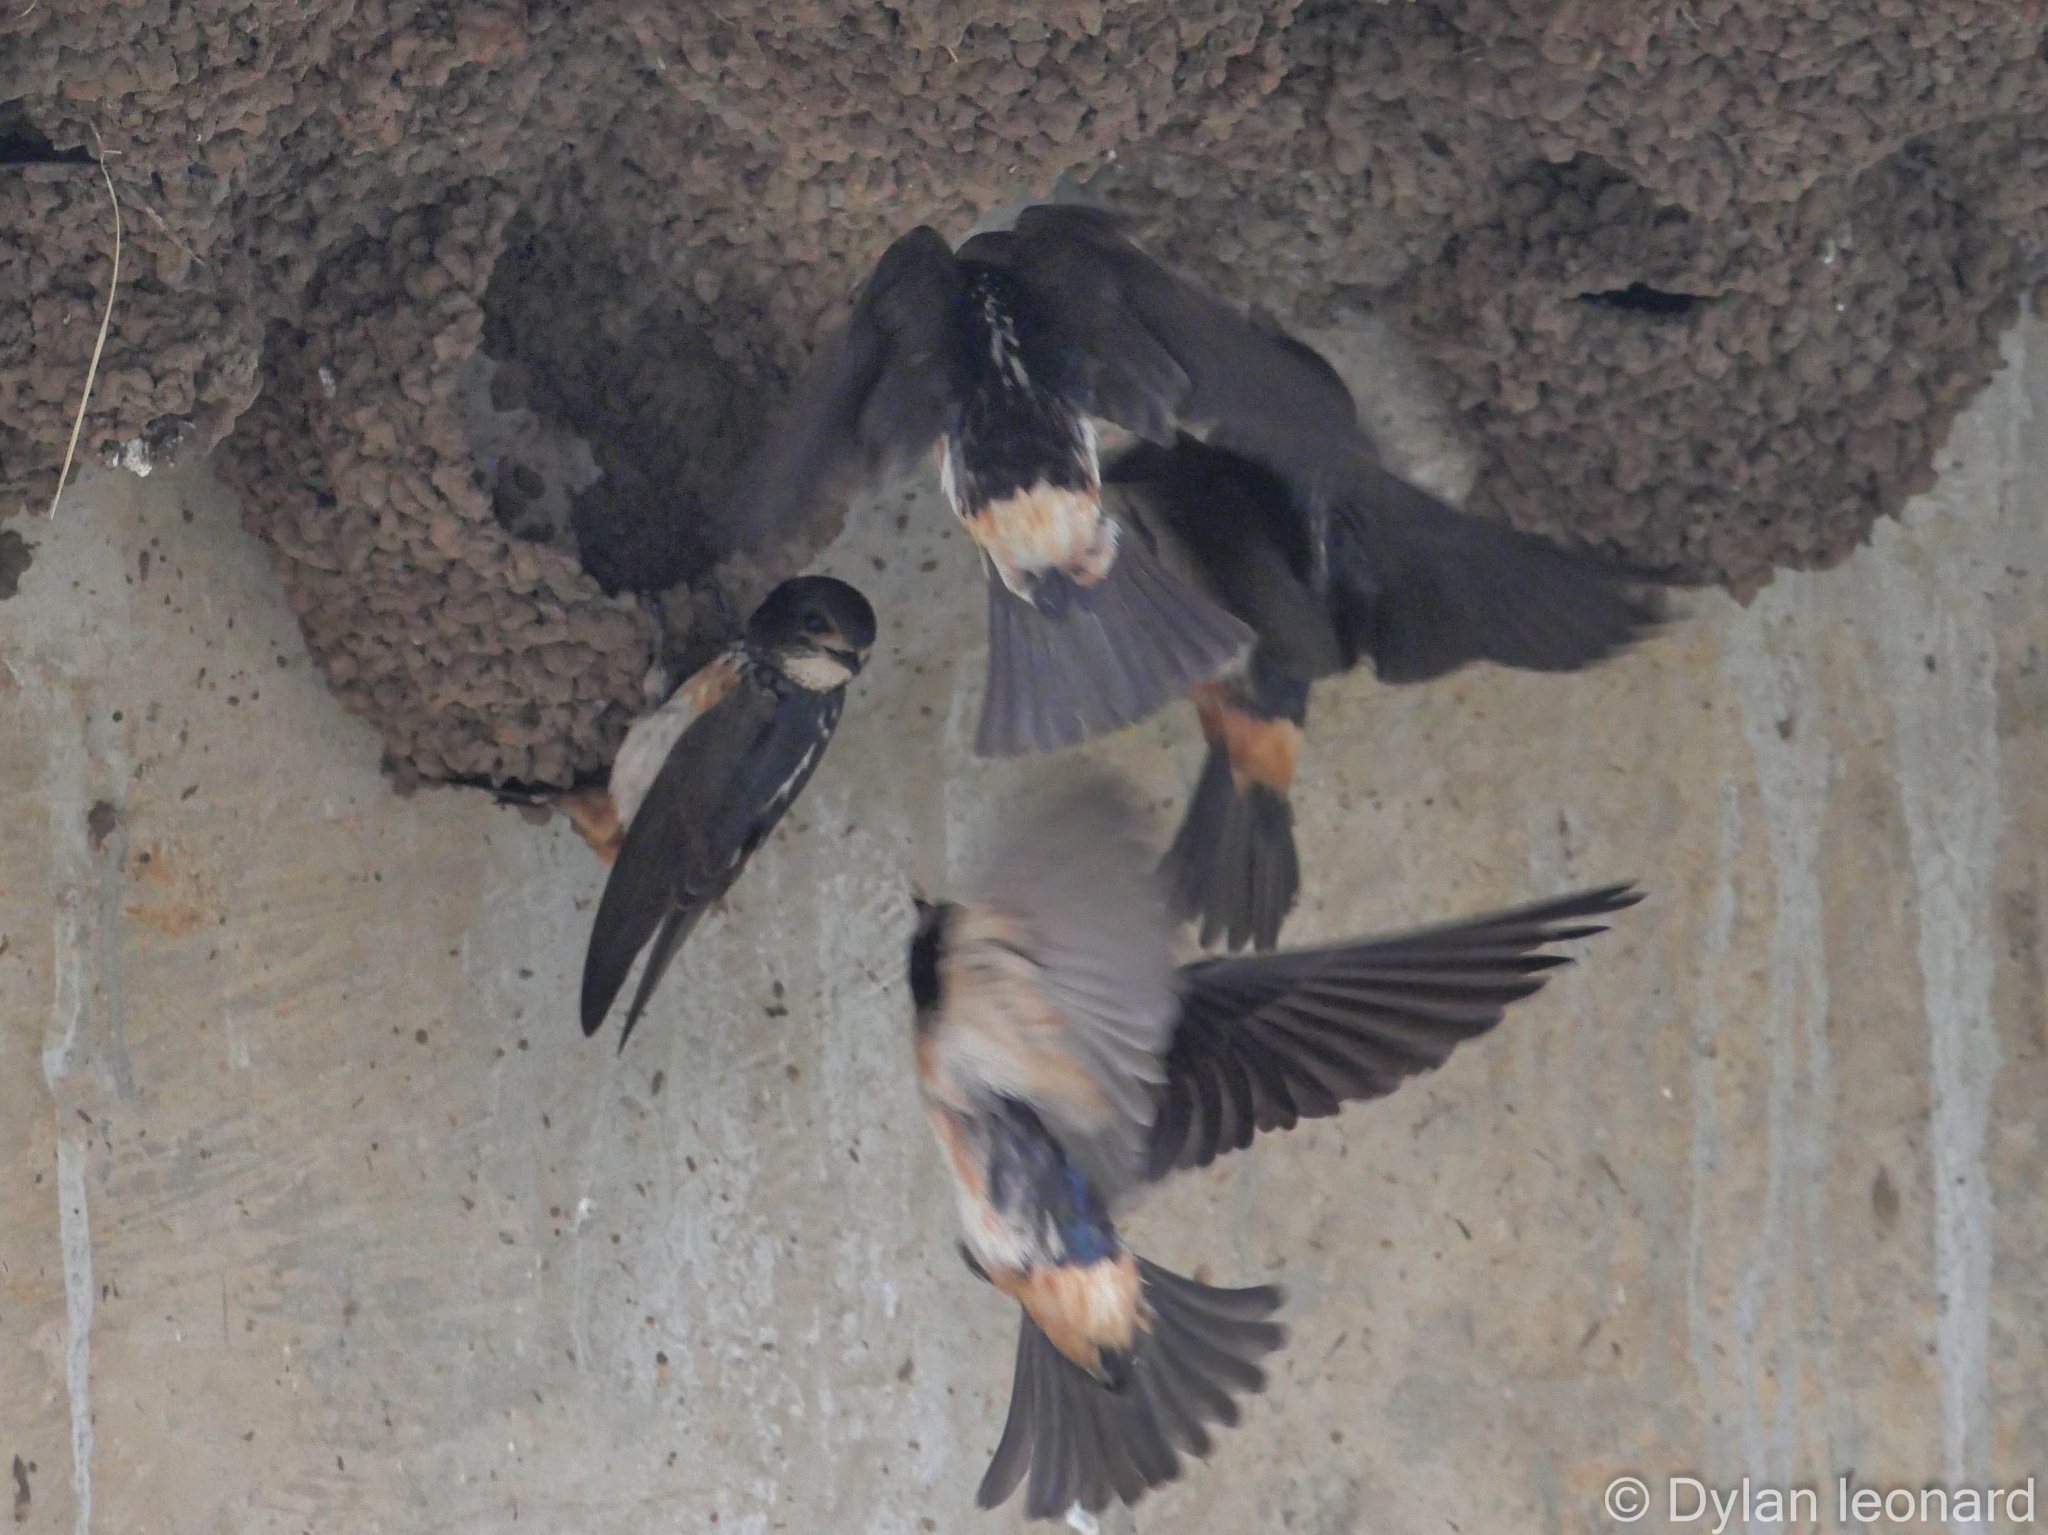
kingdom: Animalia
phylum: Chordata
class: Aves
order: Passeriformes
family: Hirundinidae
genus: Petrochelidon
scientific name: Petrochelidon spilodera
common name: South african swallow
